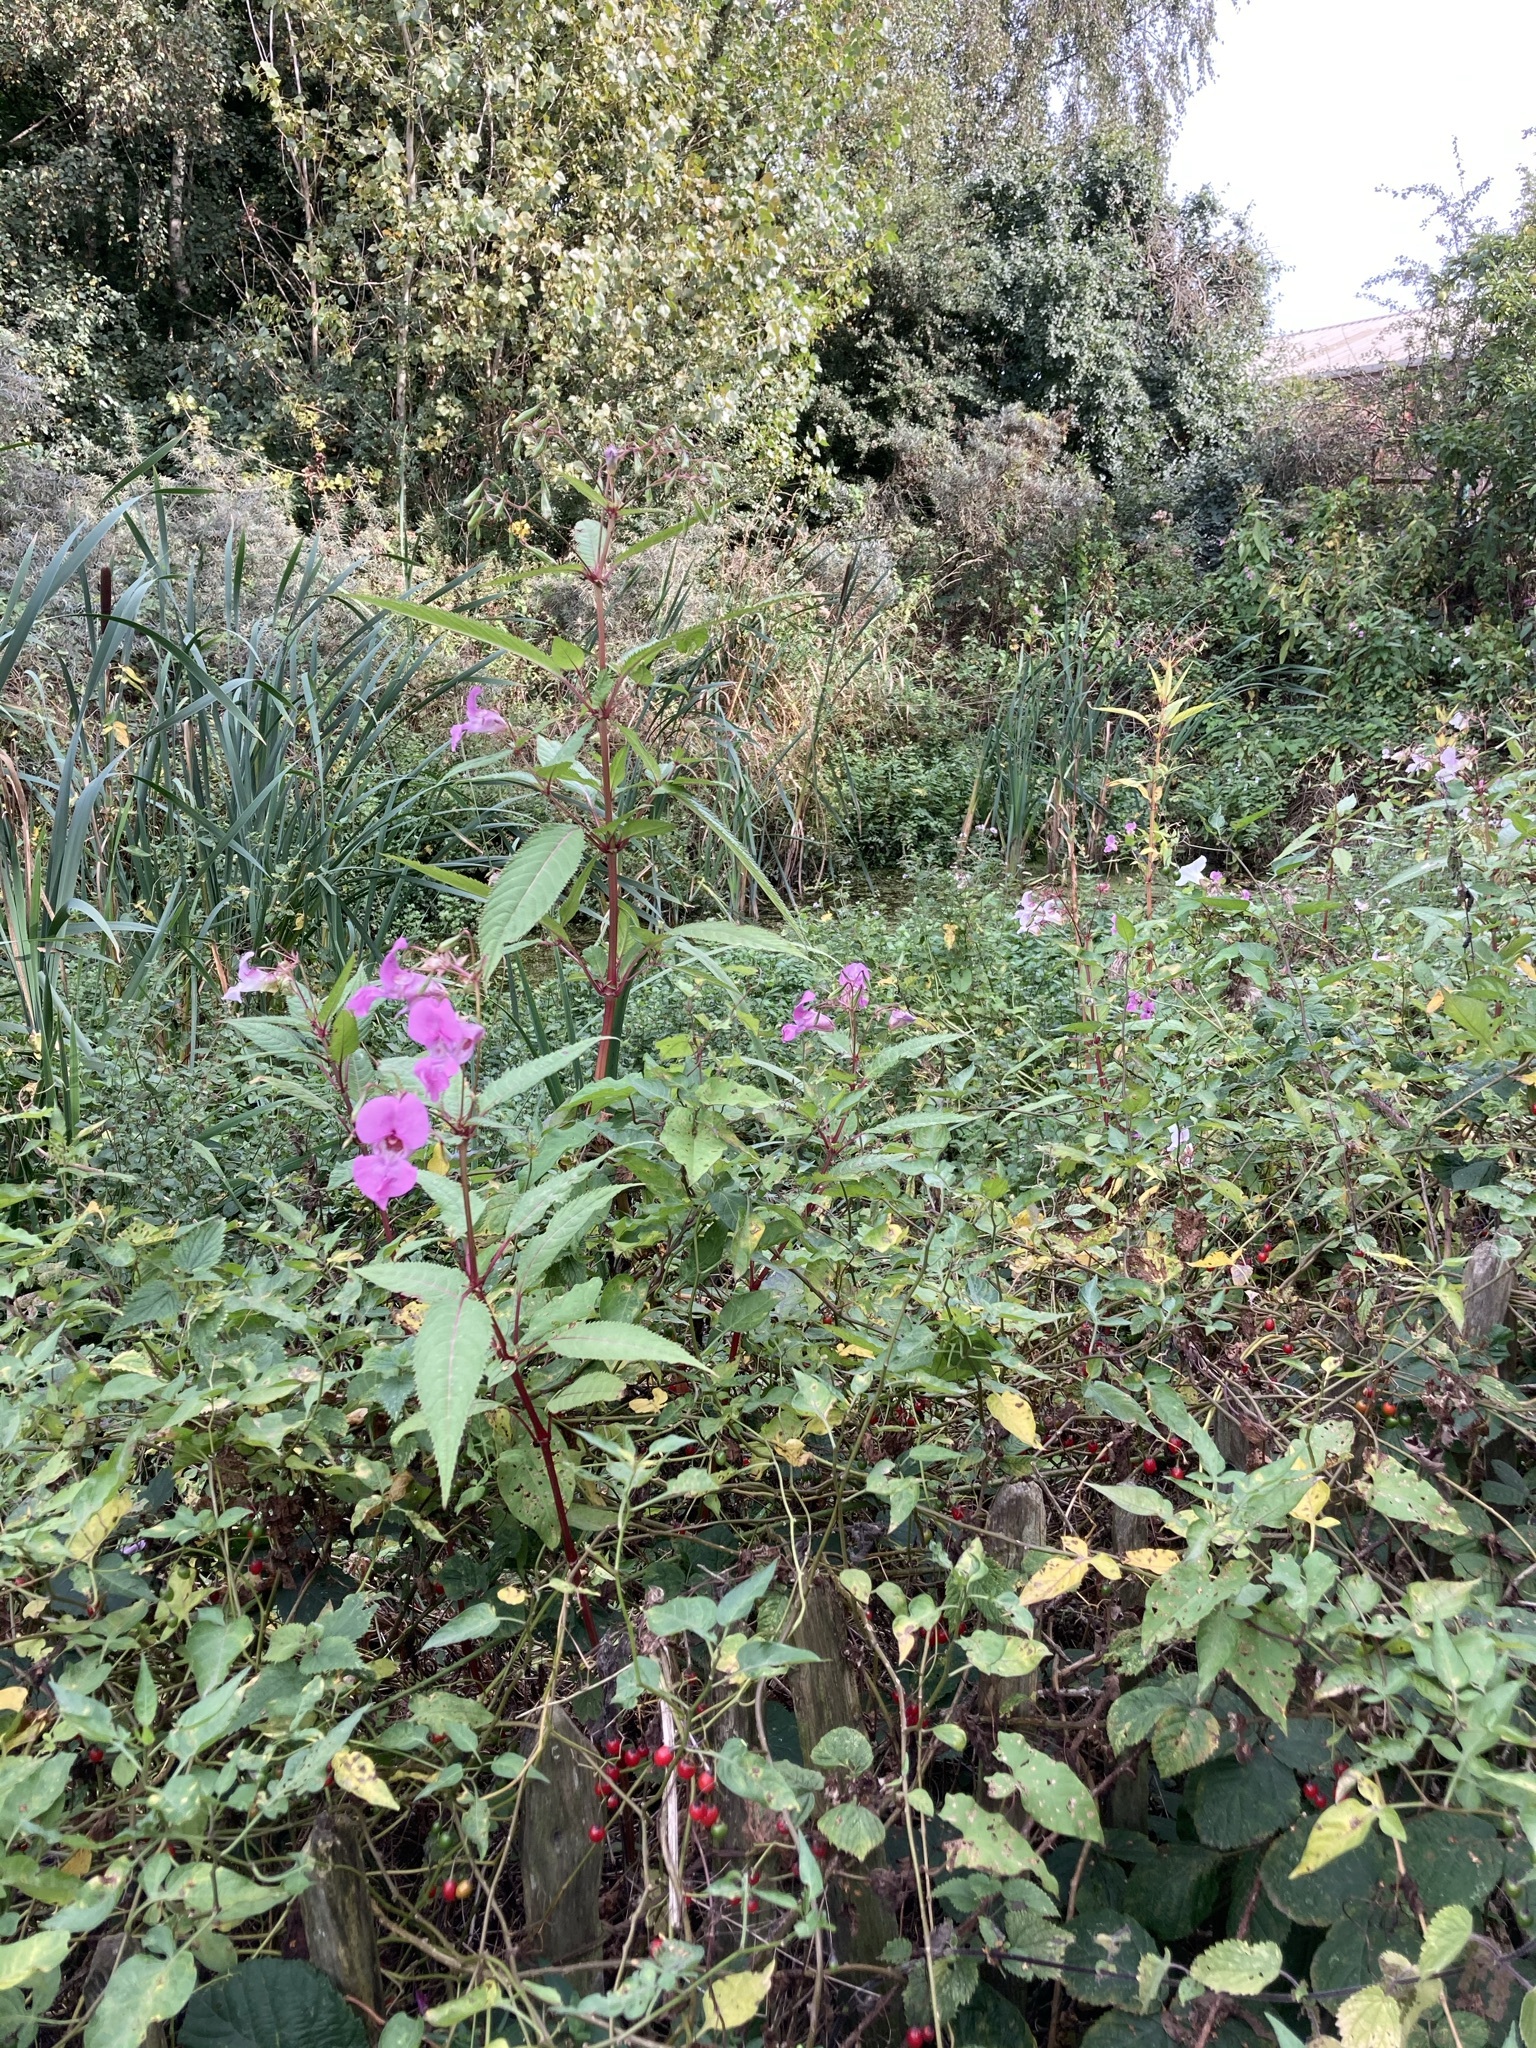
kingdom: Plantae
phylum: Tracheophyta
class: Magnoliopsida
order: Ericales
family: Balsaminaceae
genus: Impatiens
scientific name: Impatiens glandulifera
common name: Himalayan balsam
